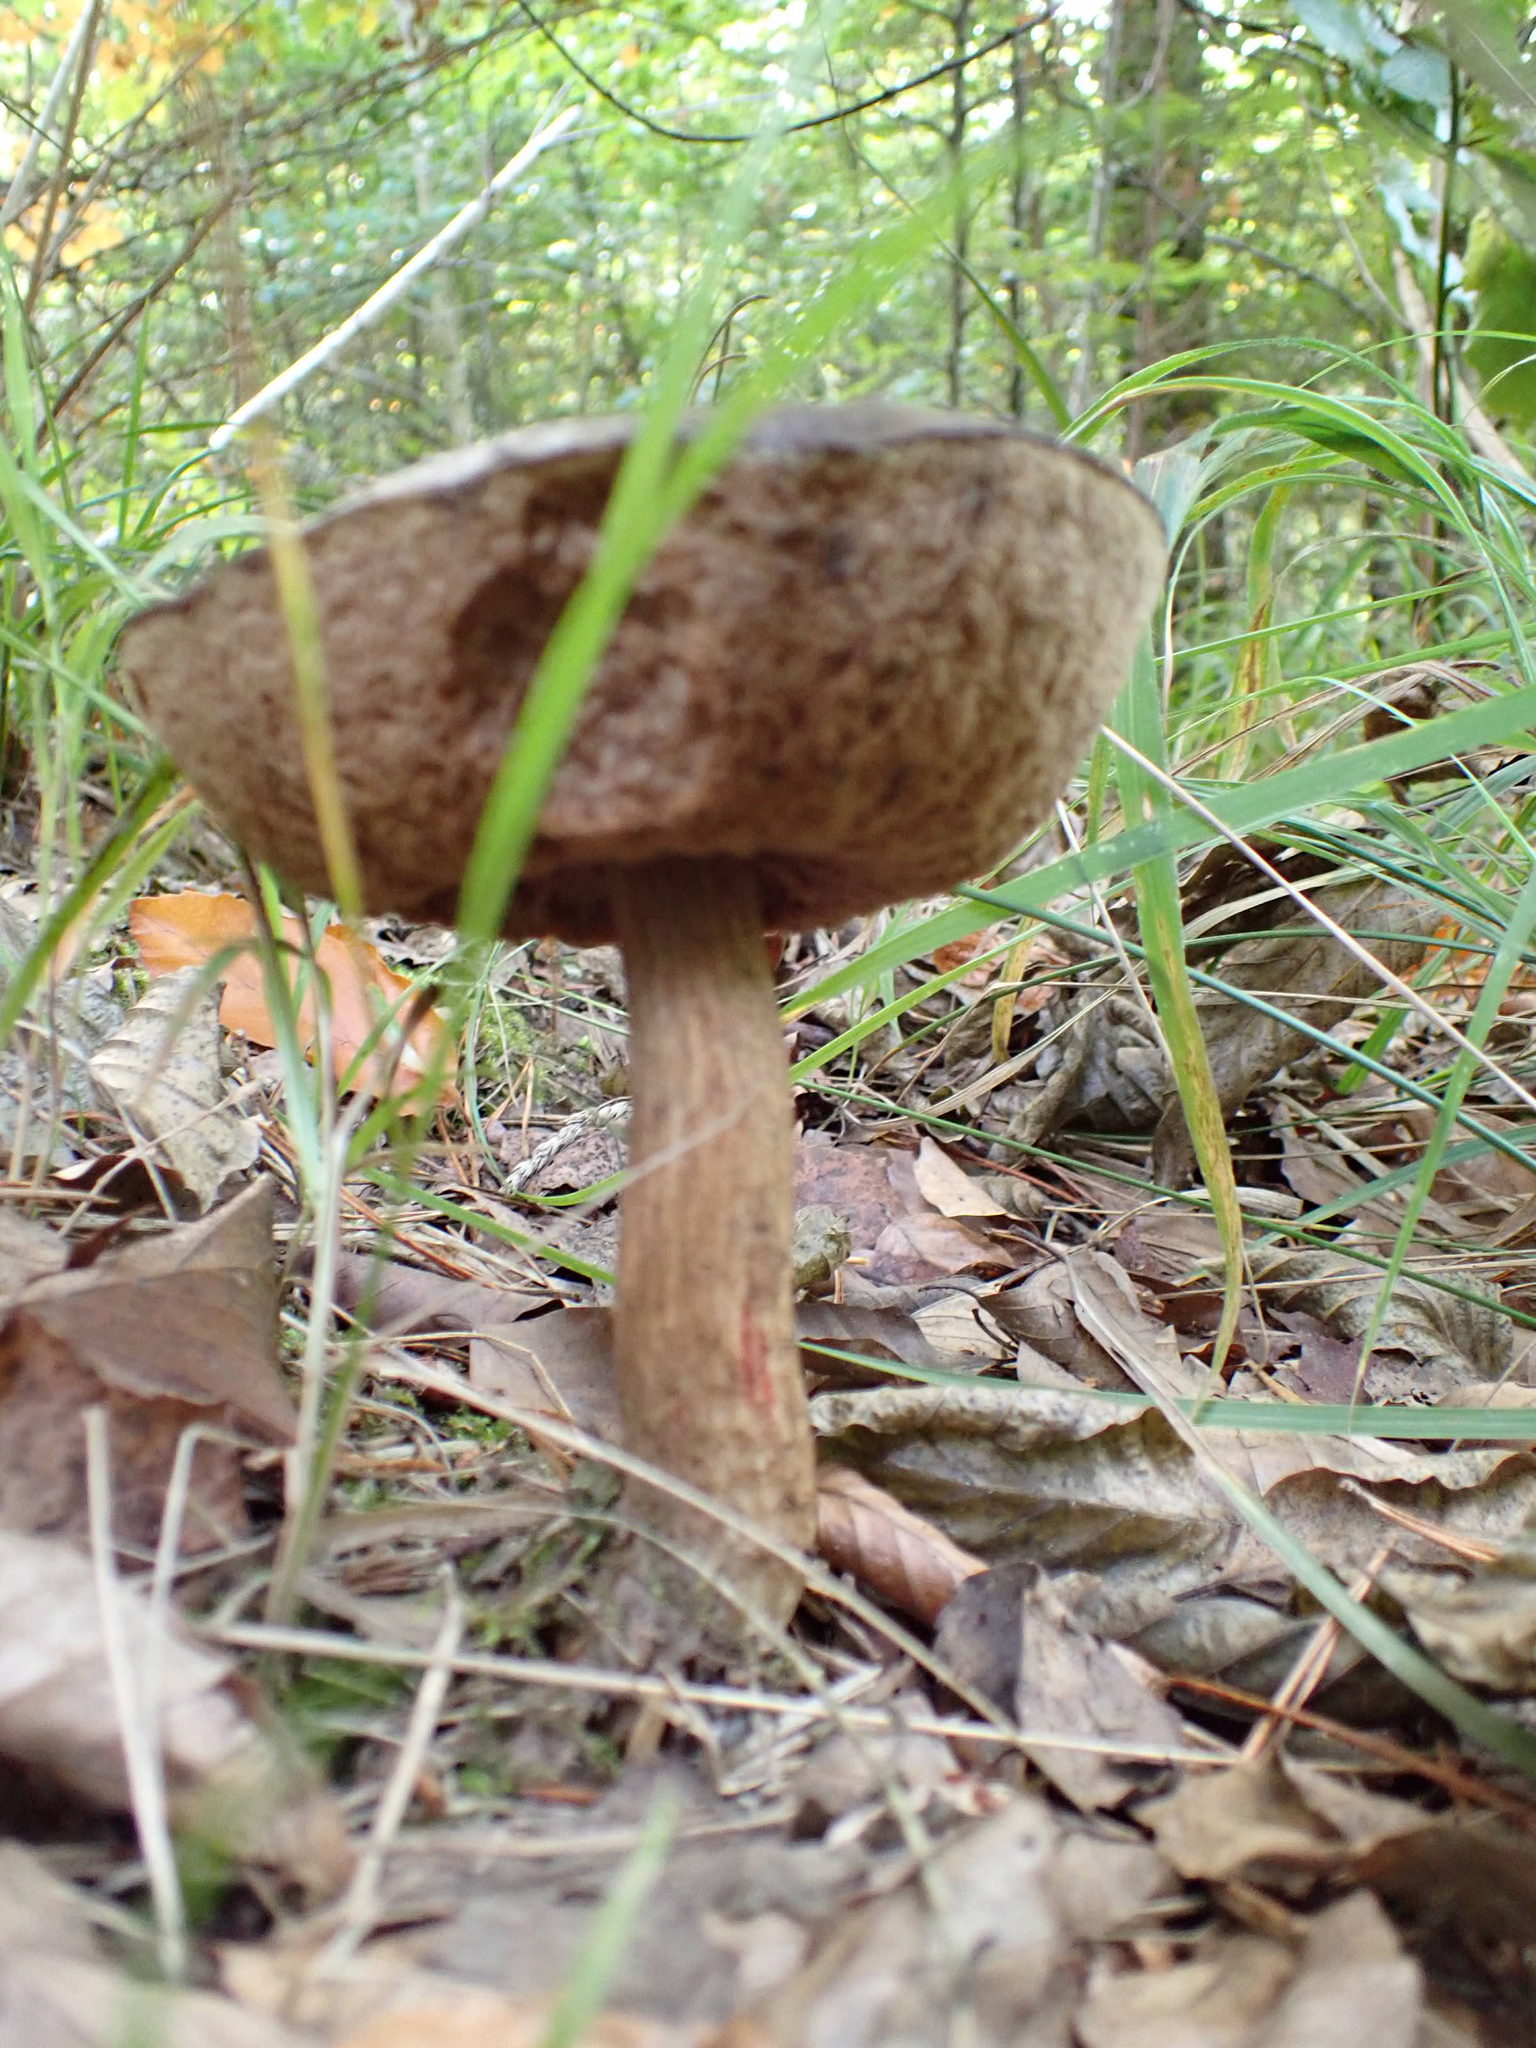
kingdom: Fungi
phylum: Basidiomycota
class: Agaricomycetes
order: Boletales
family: Boletaceae
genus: Leccinum
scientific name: Leccinum scabrum
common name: Blushing bolete
